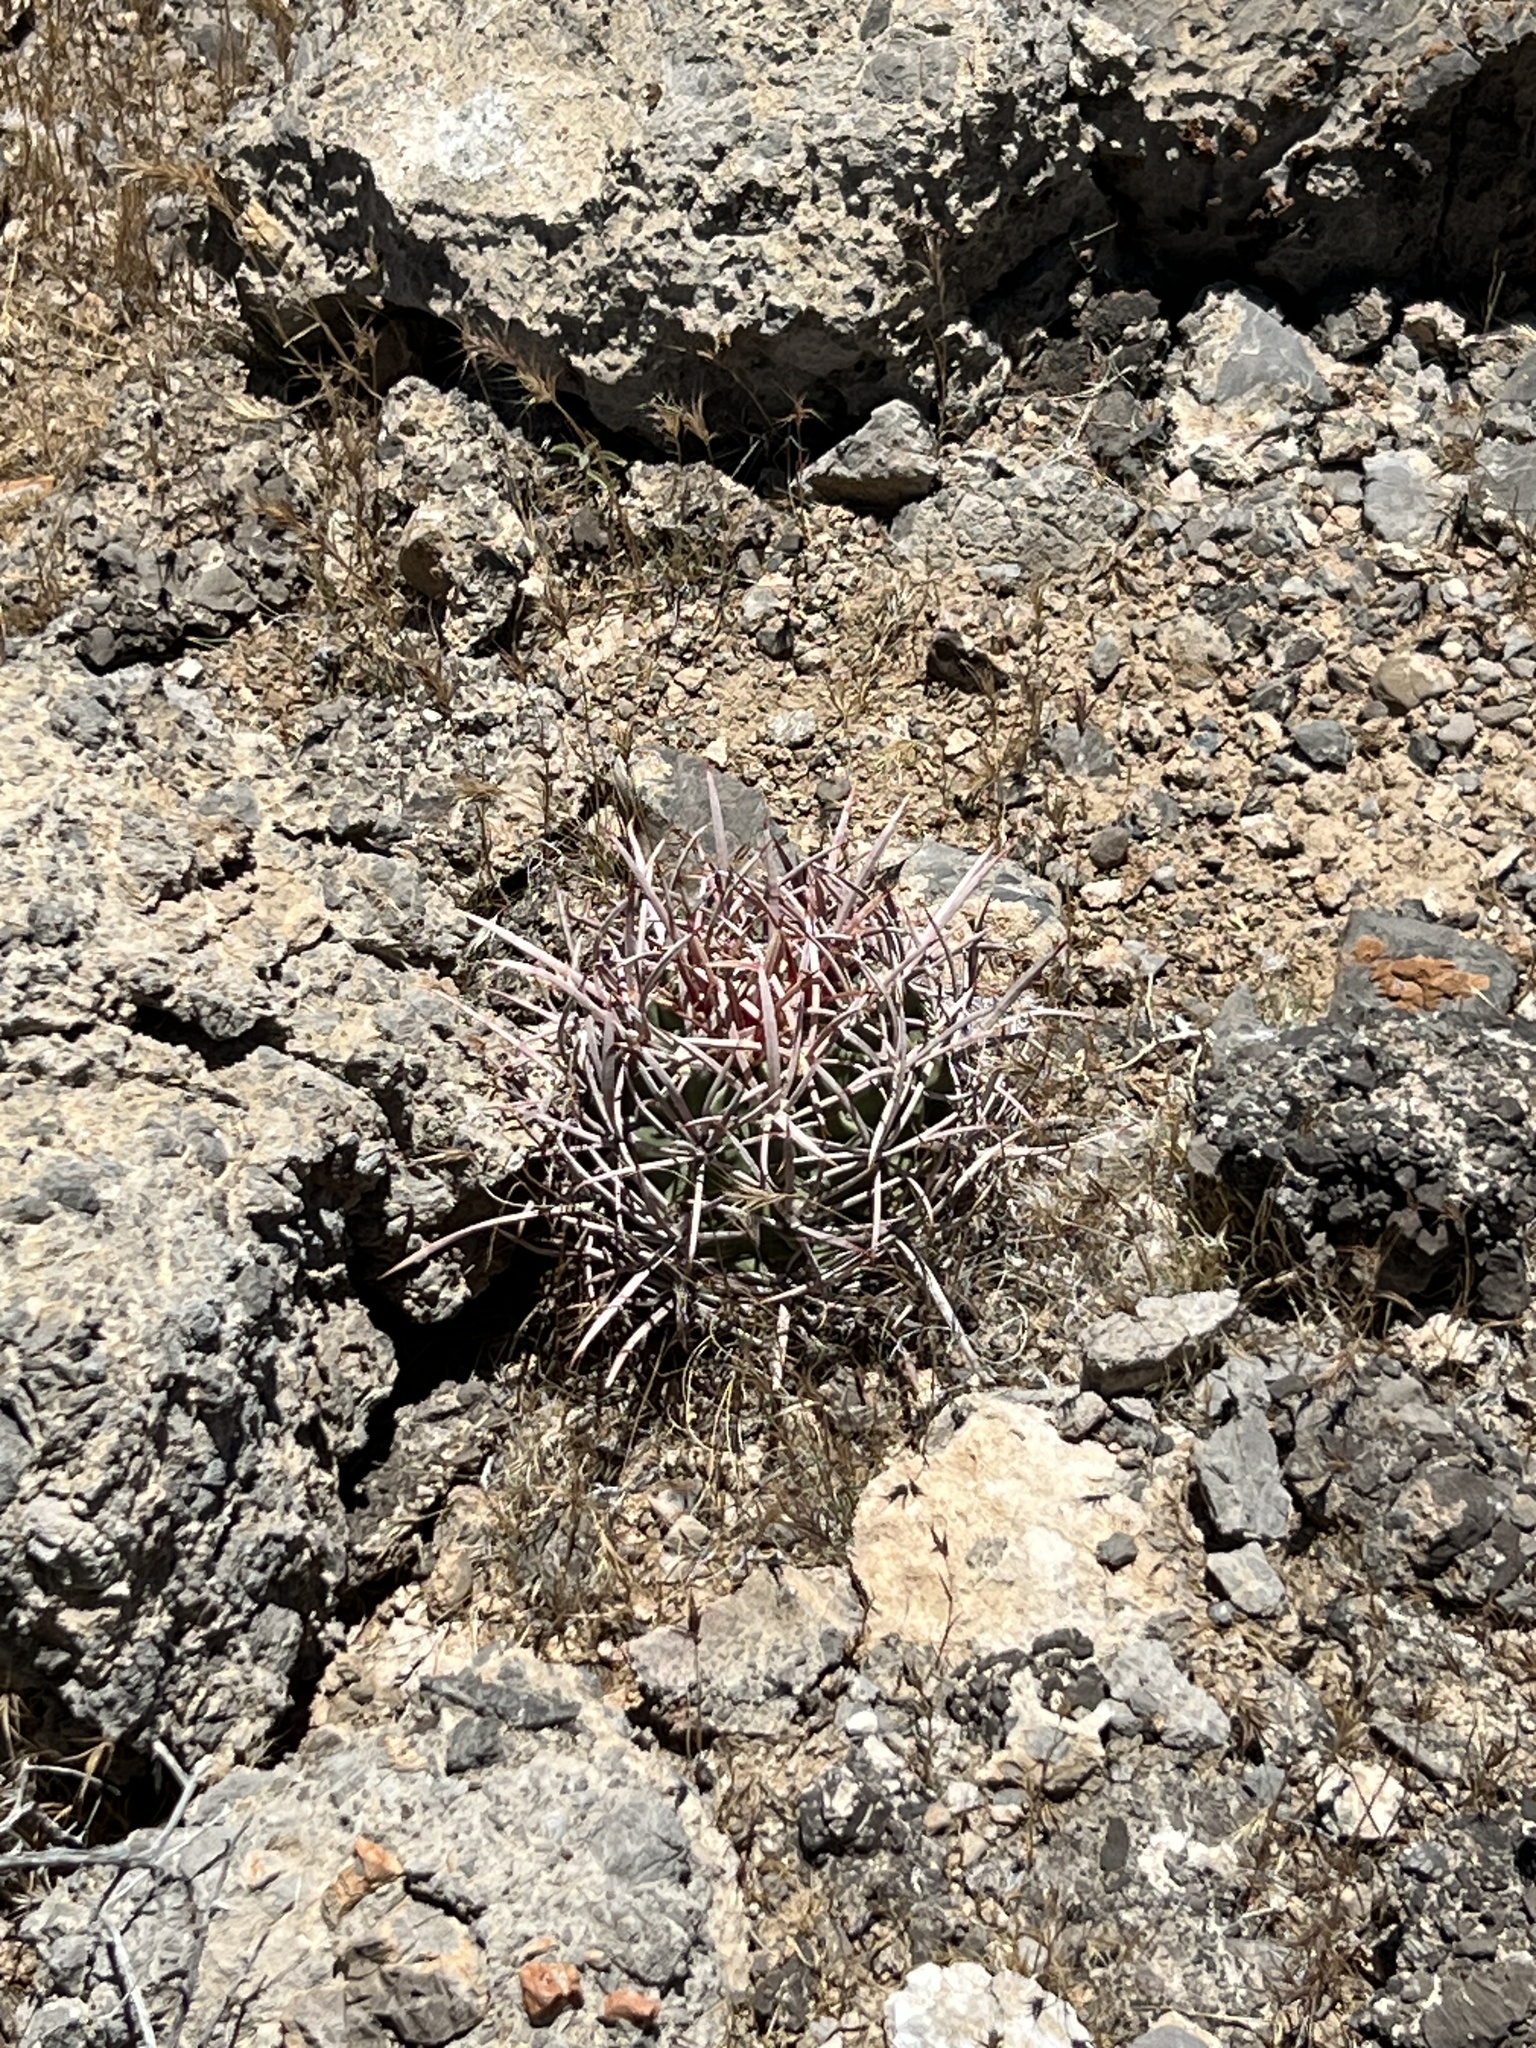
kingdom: Plantae
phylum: Tracheophyta
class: Magnoliopsida
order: Caryophyllales
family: Cactaceae
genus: Echinocactus
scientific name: Echinocactus polycephalus
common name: Cottontop cactus
